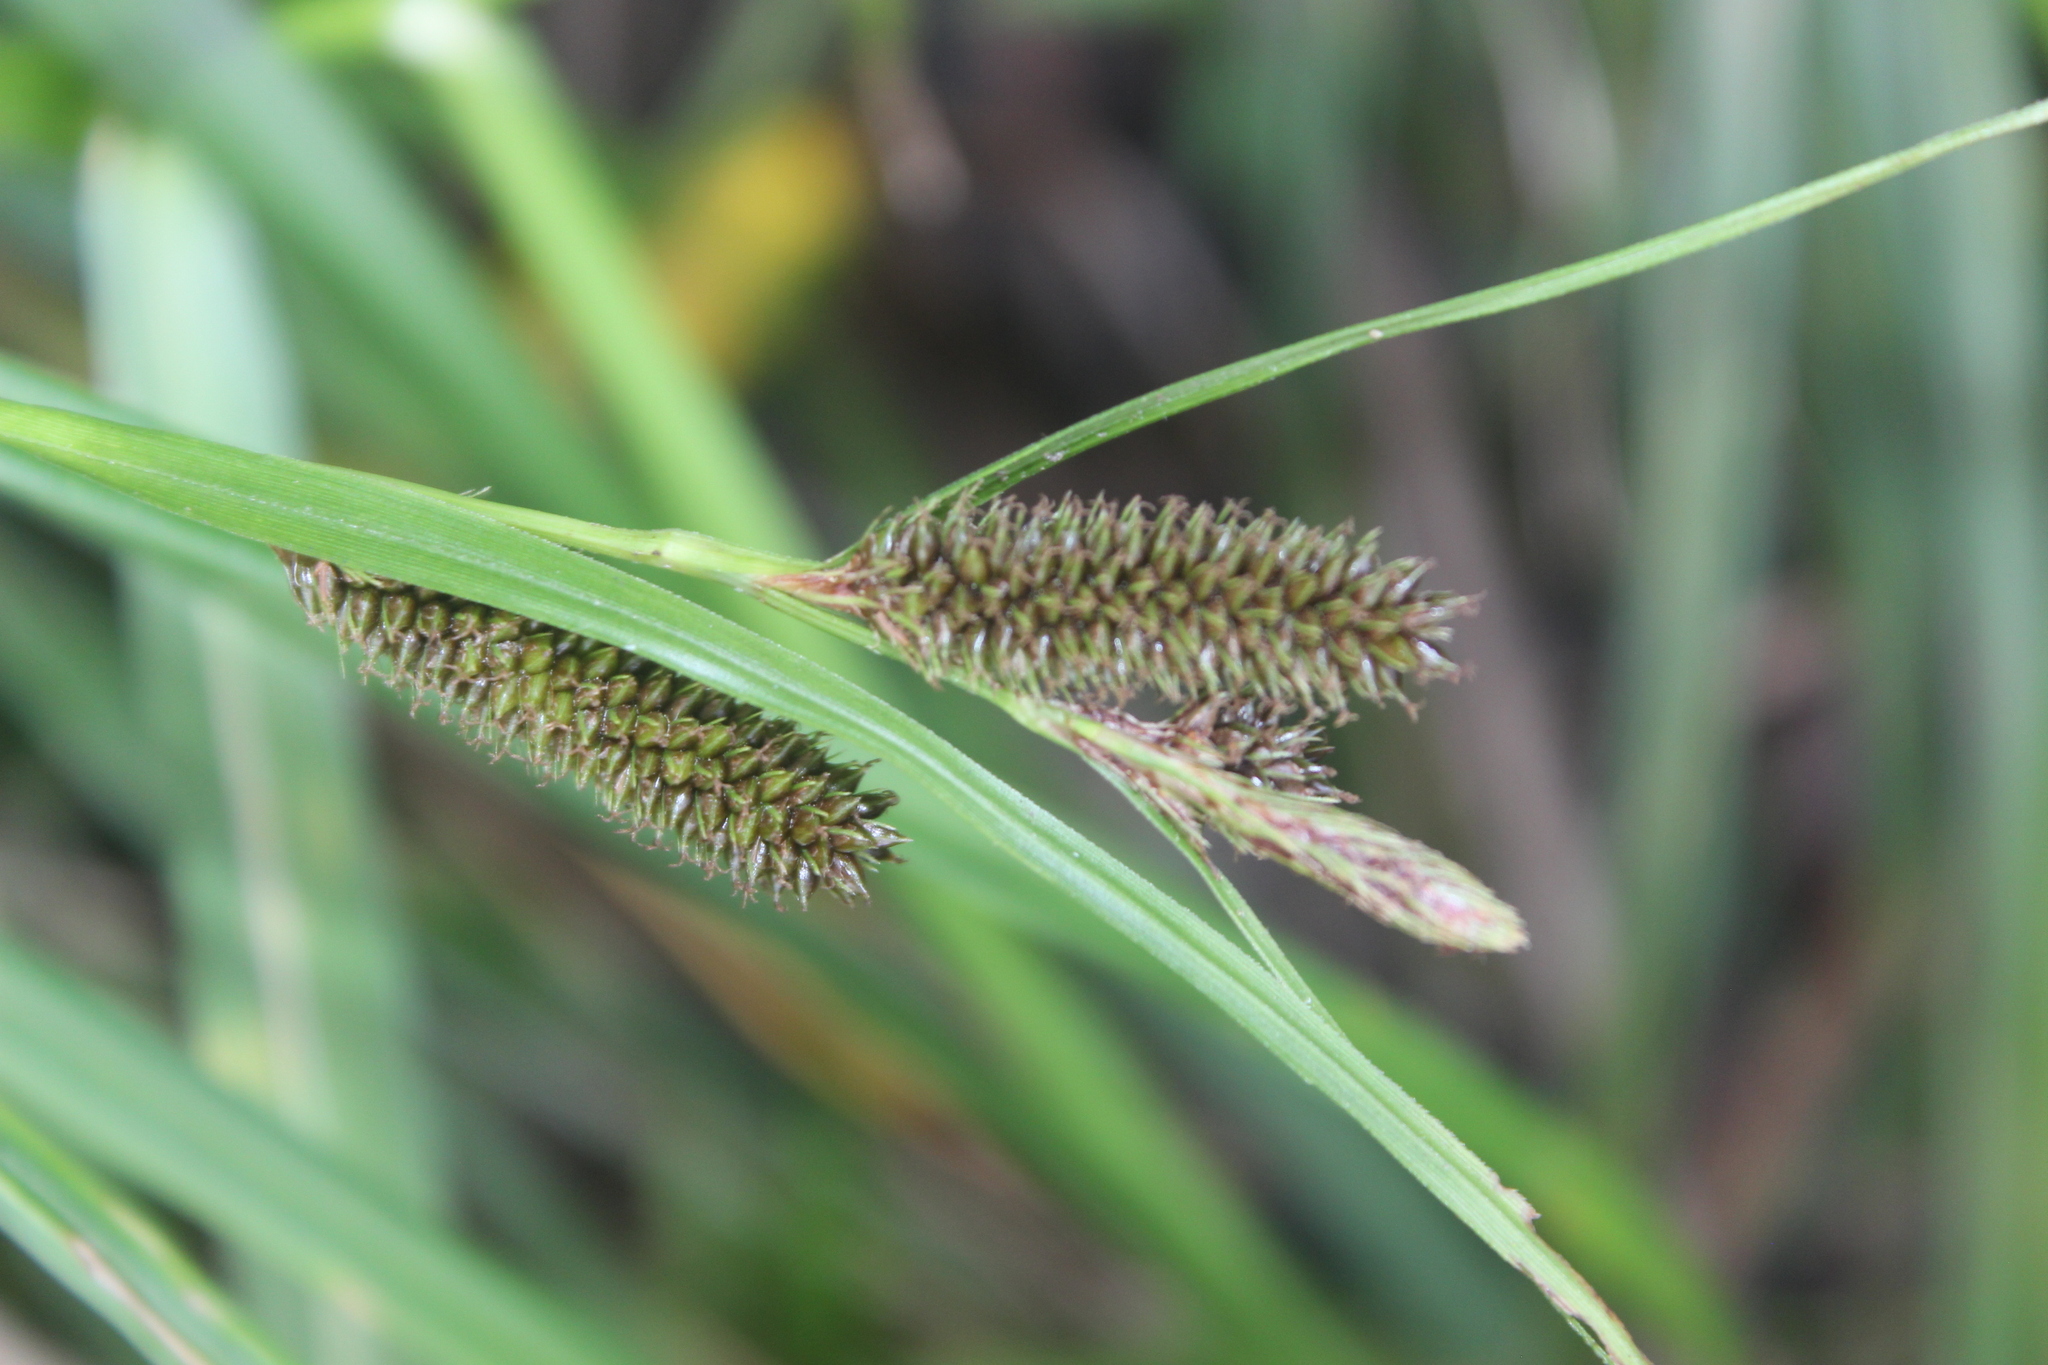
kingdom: Plantae
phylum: Tracheophyta
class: Liliopsida
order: Poales
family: Cyperaceae
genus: Carex
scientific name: Carex dissita
